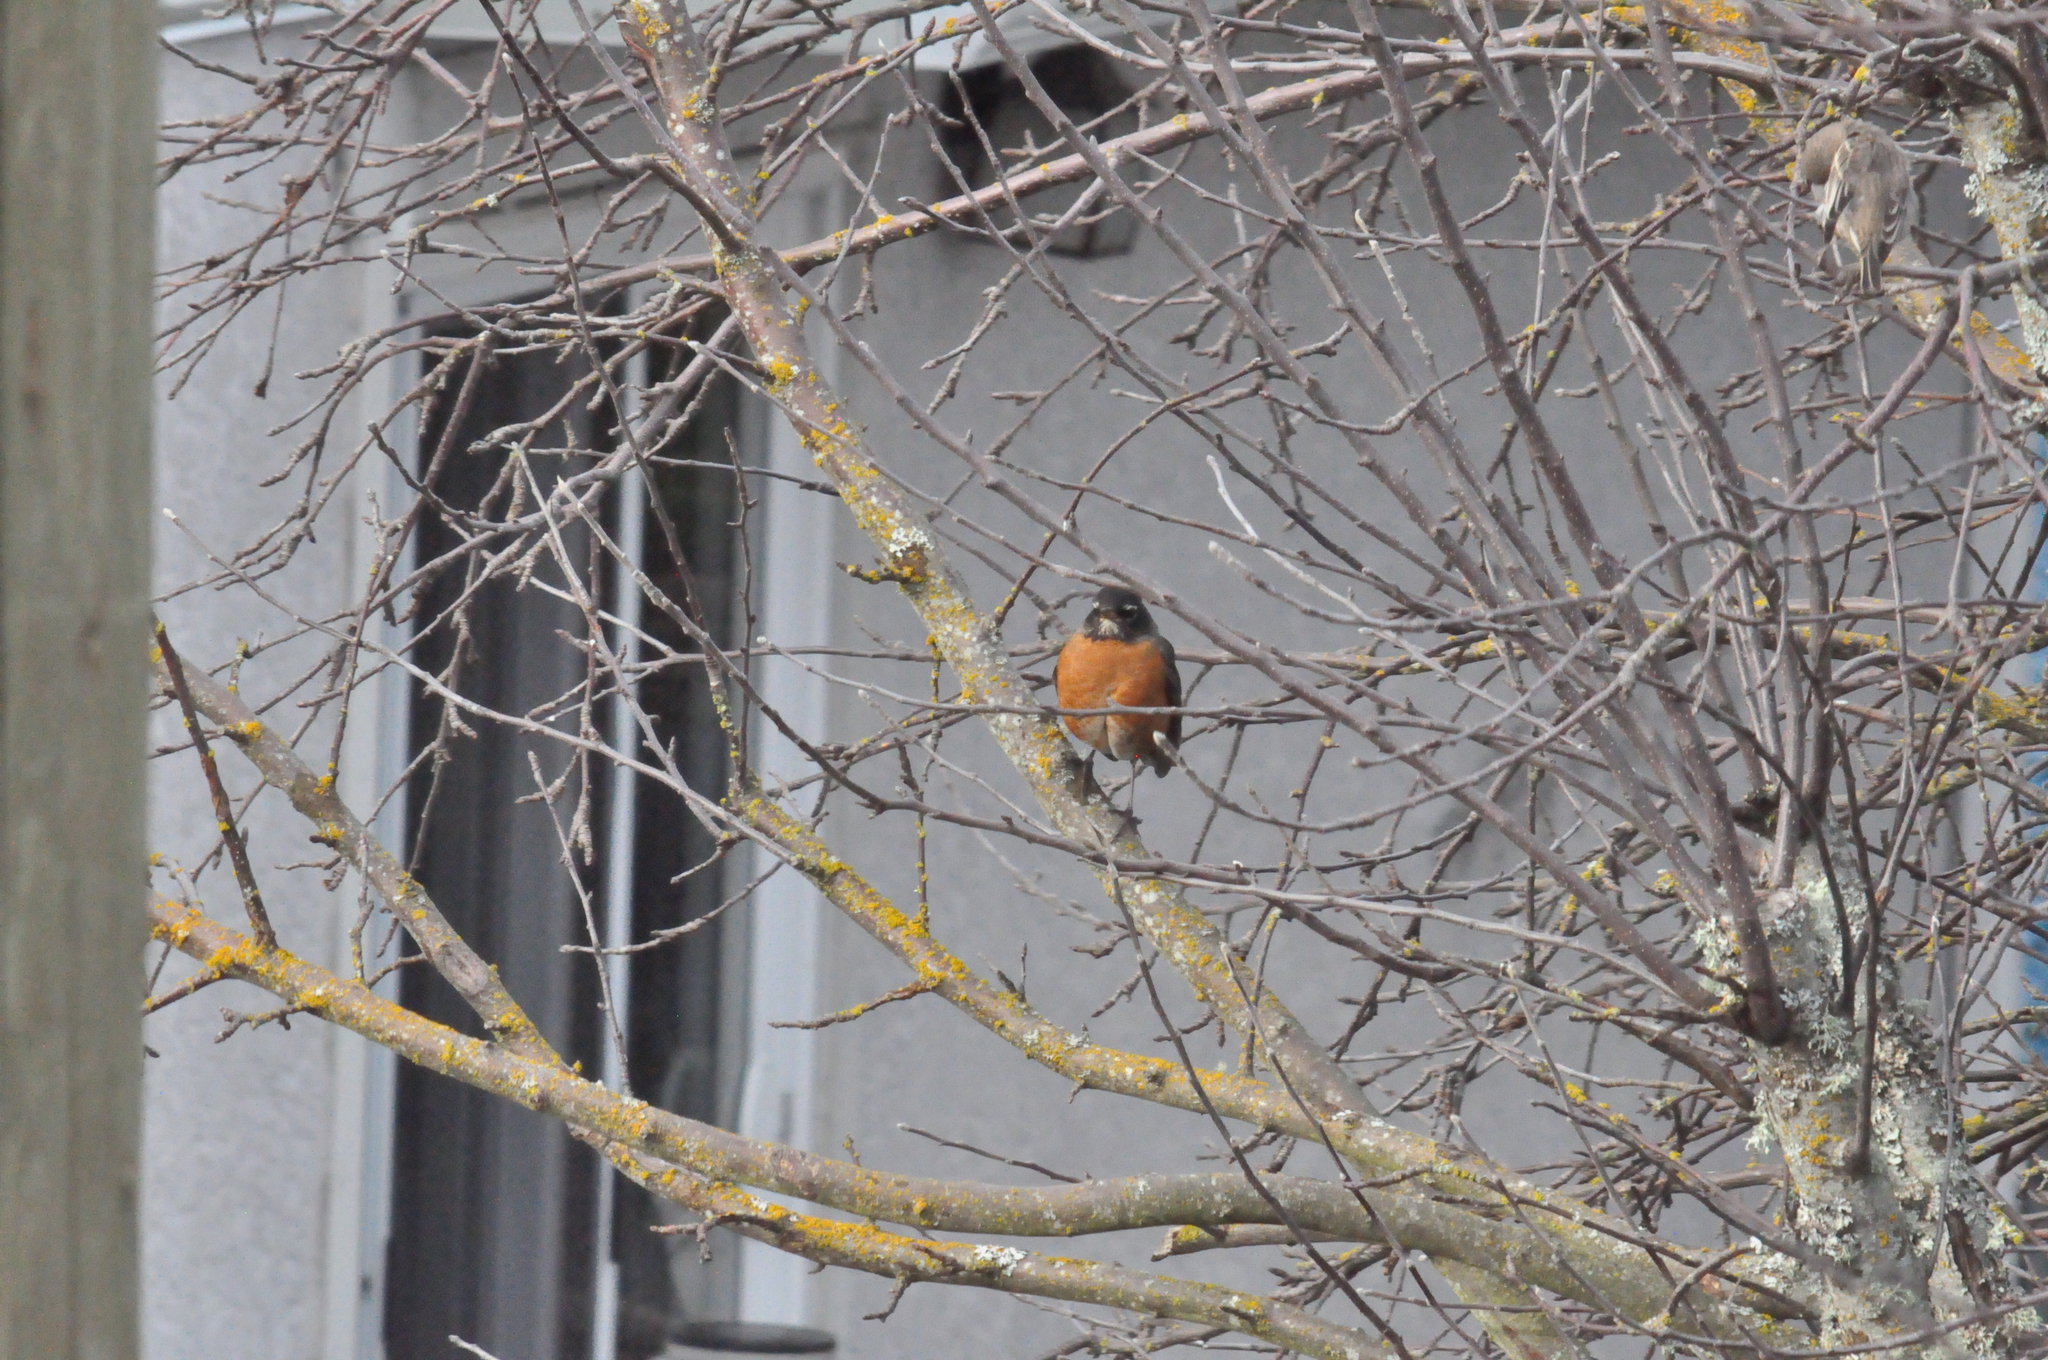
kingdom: Animalia
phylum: Chordata
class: Aves
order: Passeriformes
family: Turdidae
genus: Turdus
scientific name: Turdus migratorius
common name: American robin
